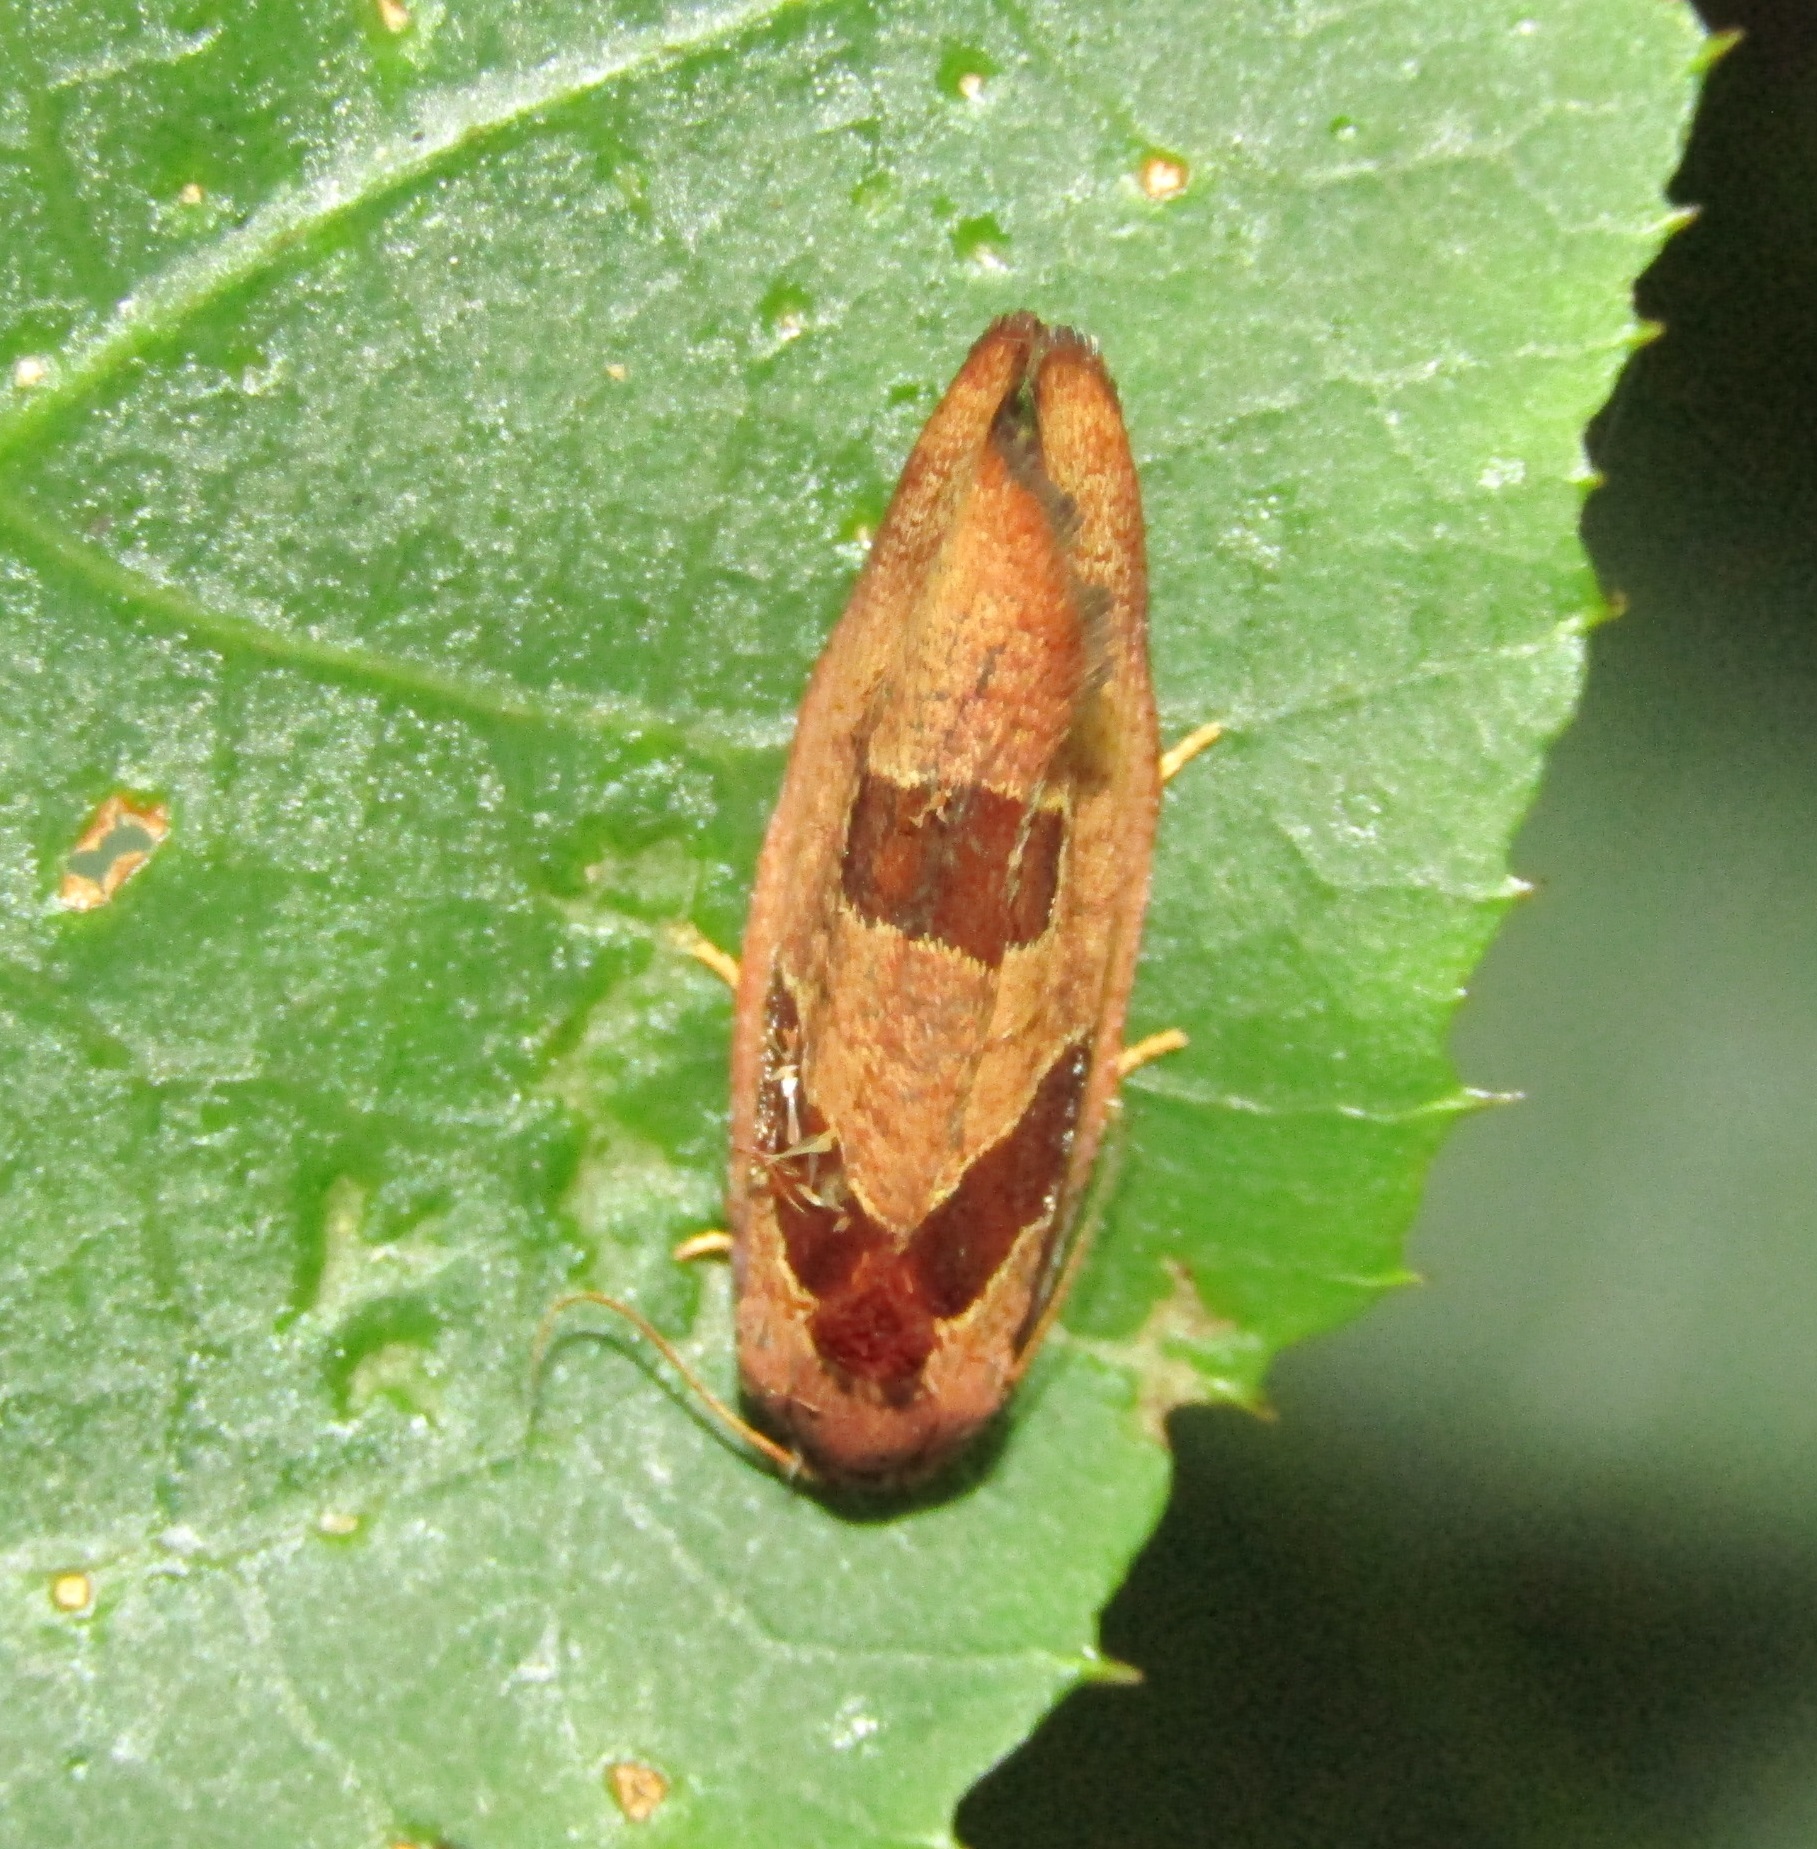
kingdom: Animalia
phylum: Arthropoda
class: Insecta
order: Lepidoptera
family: Tortricidae
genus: Ochetarcha
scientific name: Ochetarcha
